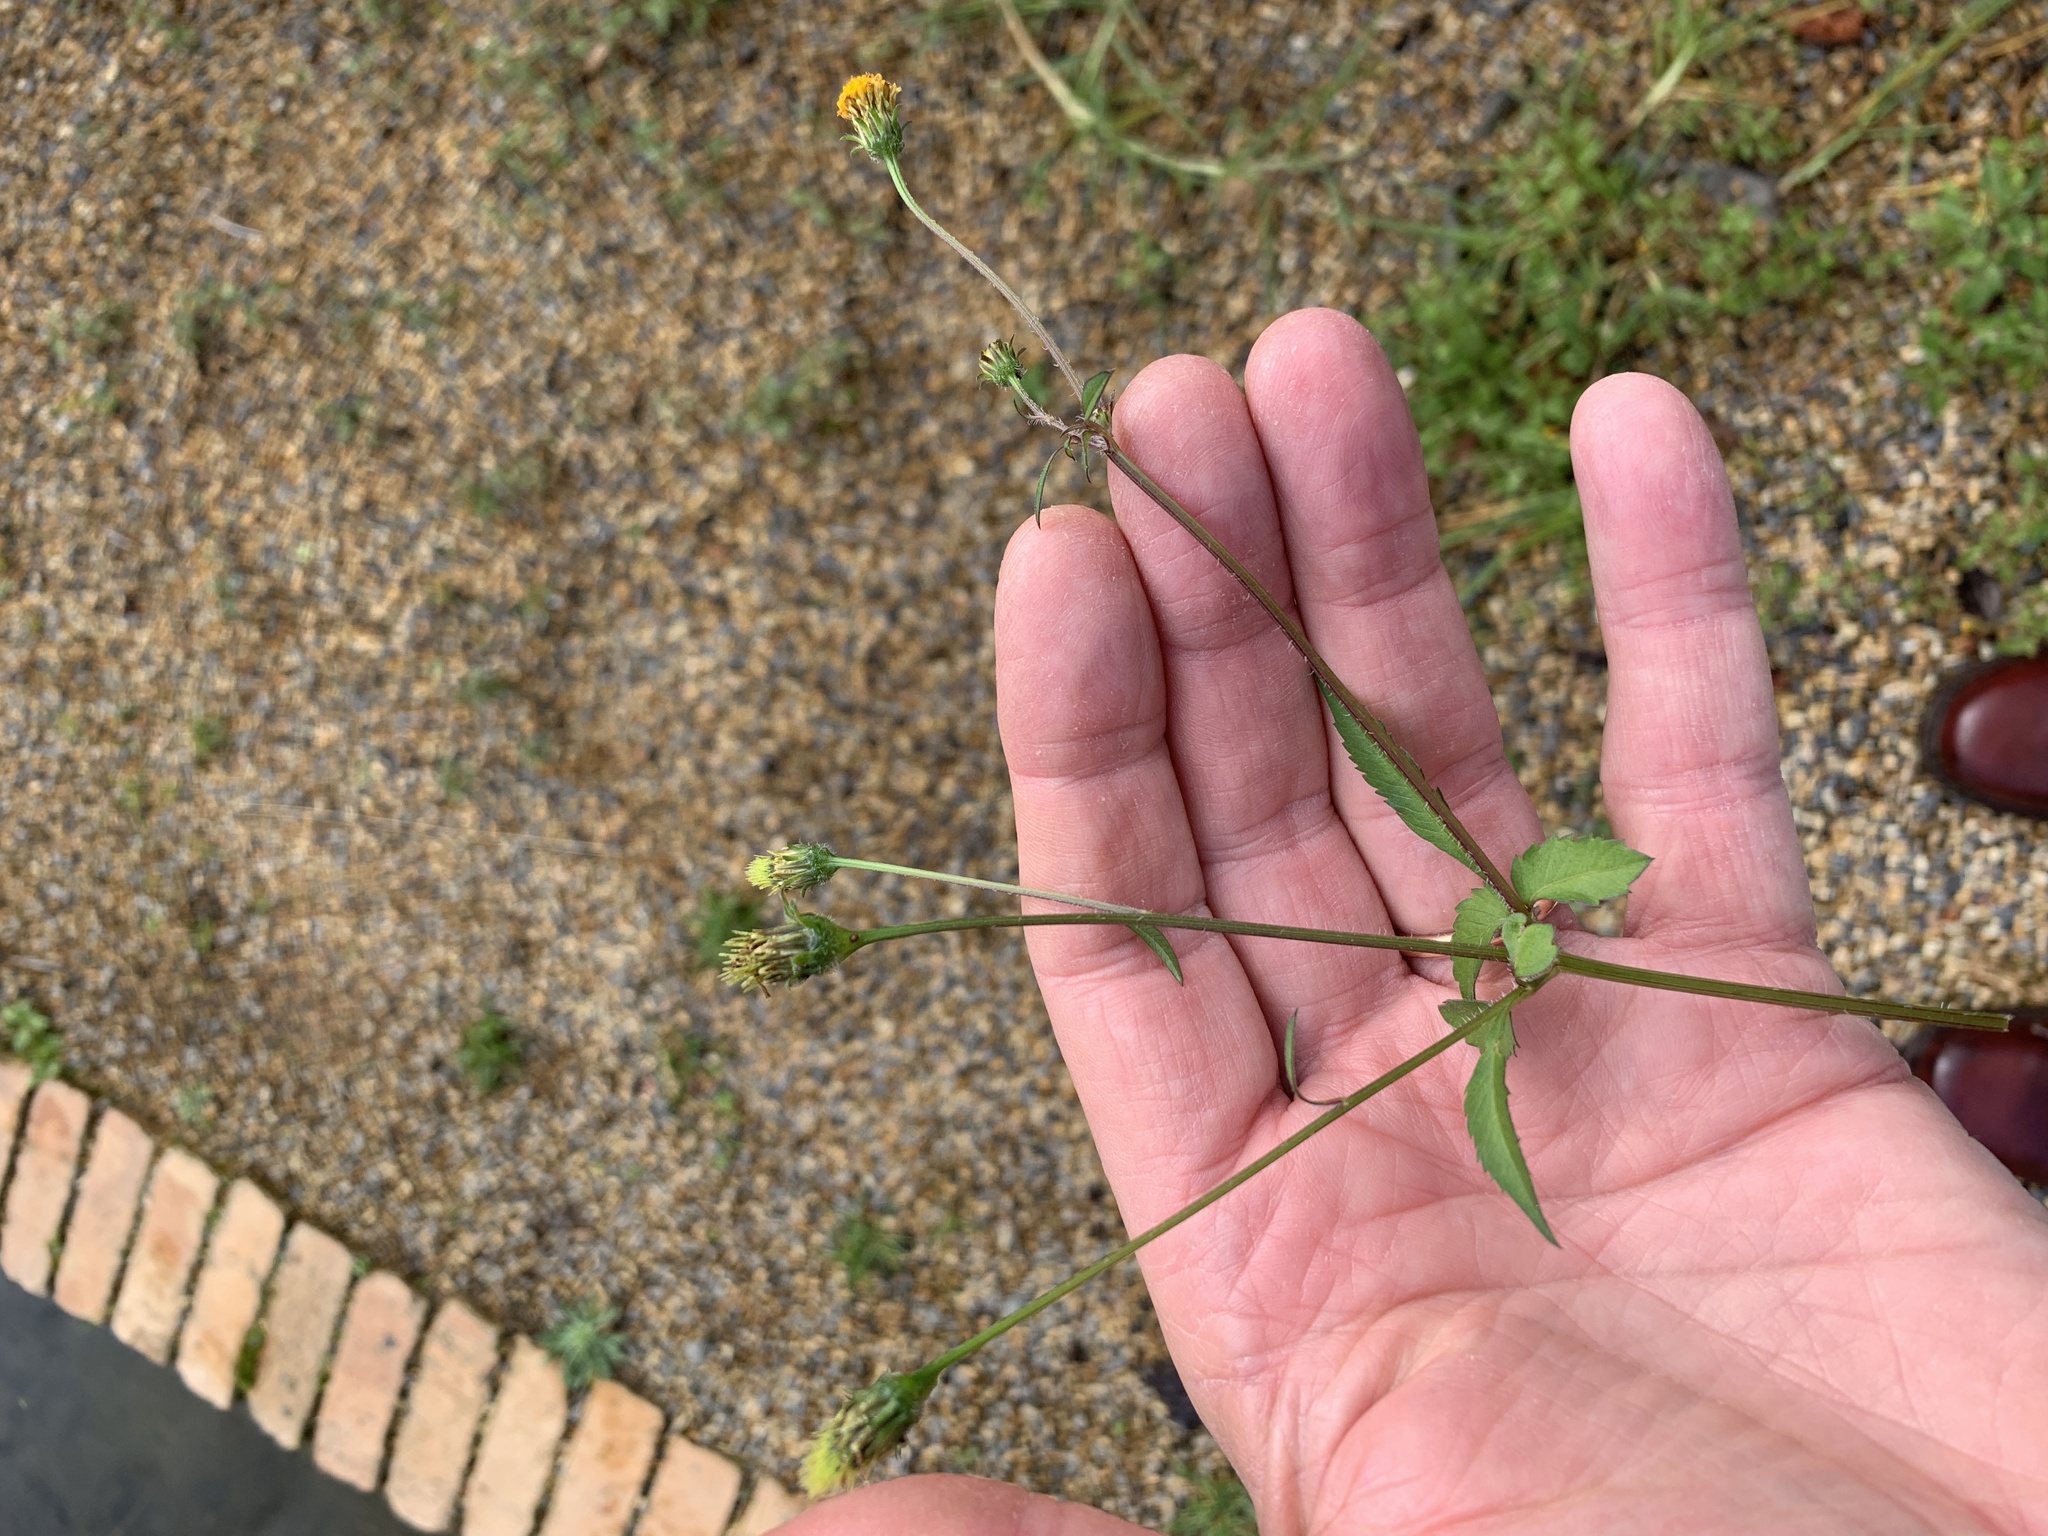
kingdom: Plantae
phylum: Tracheophyta
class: Magnoliopsida
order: Asterales
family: Asteraceae
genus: Bidens
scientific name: Bidens pilosa
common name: Black-jack
